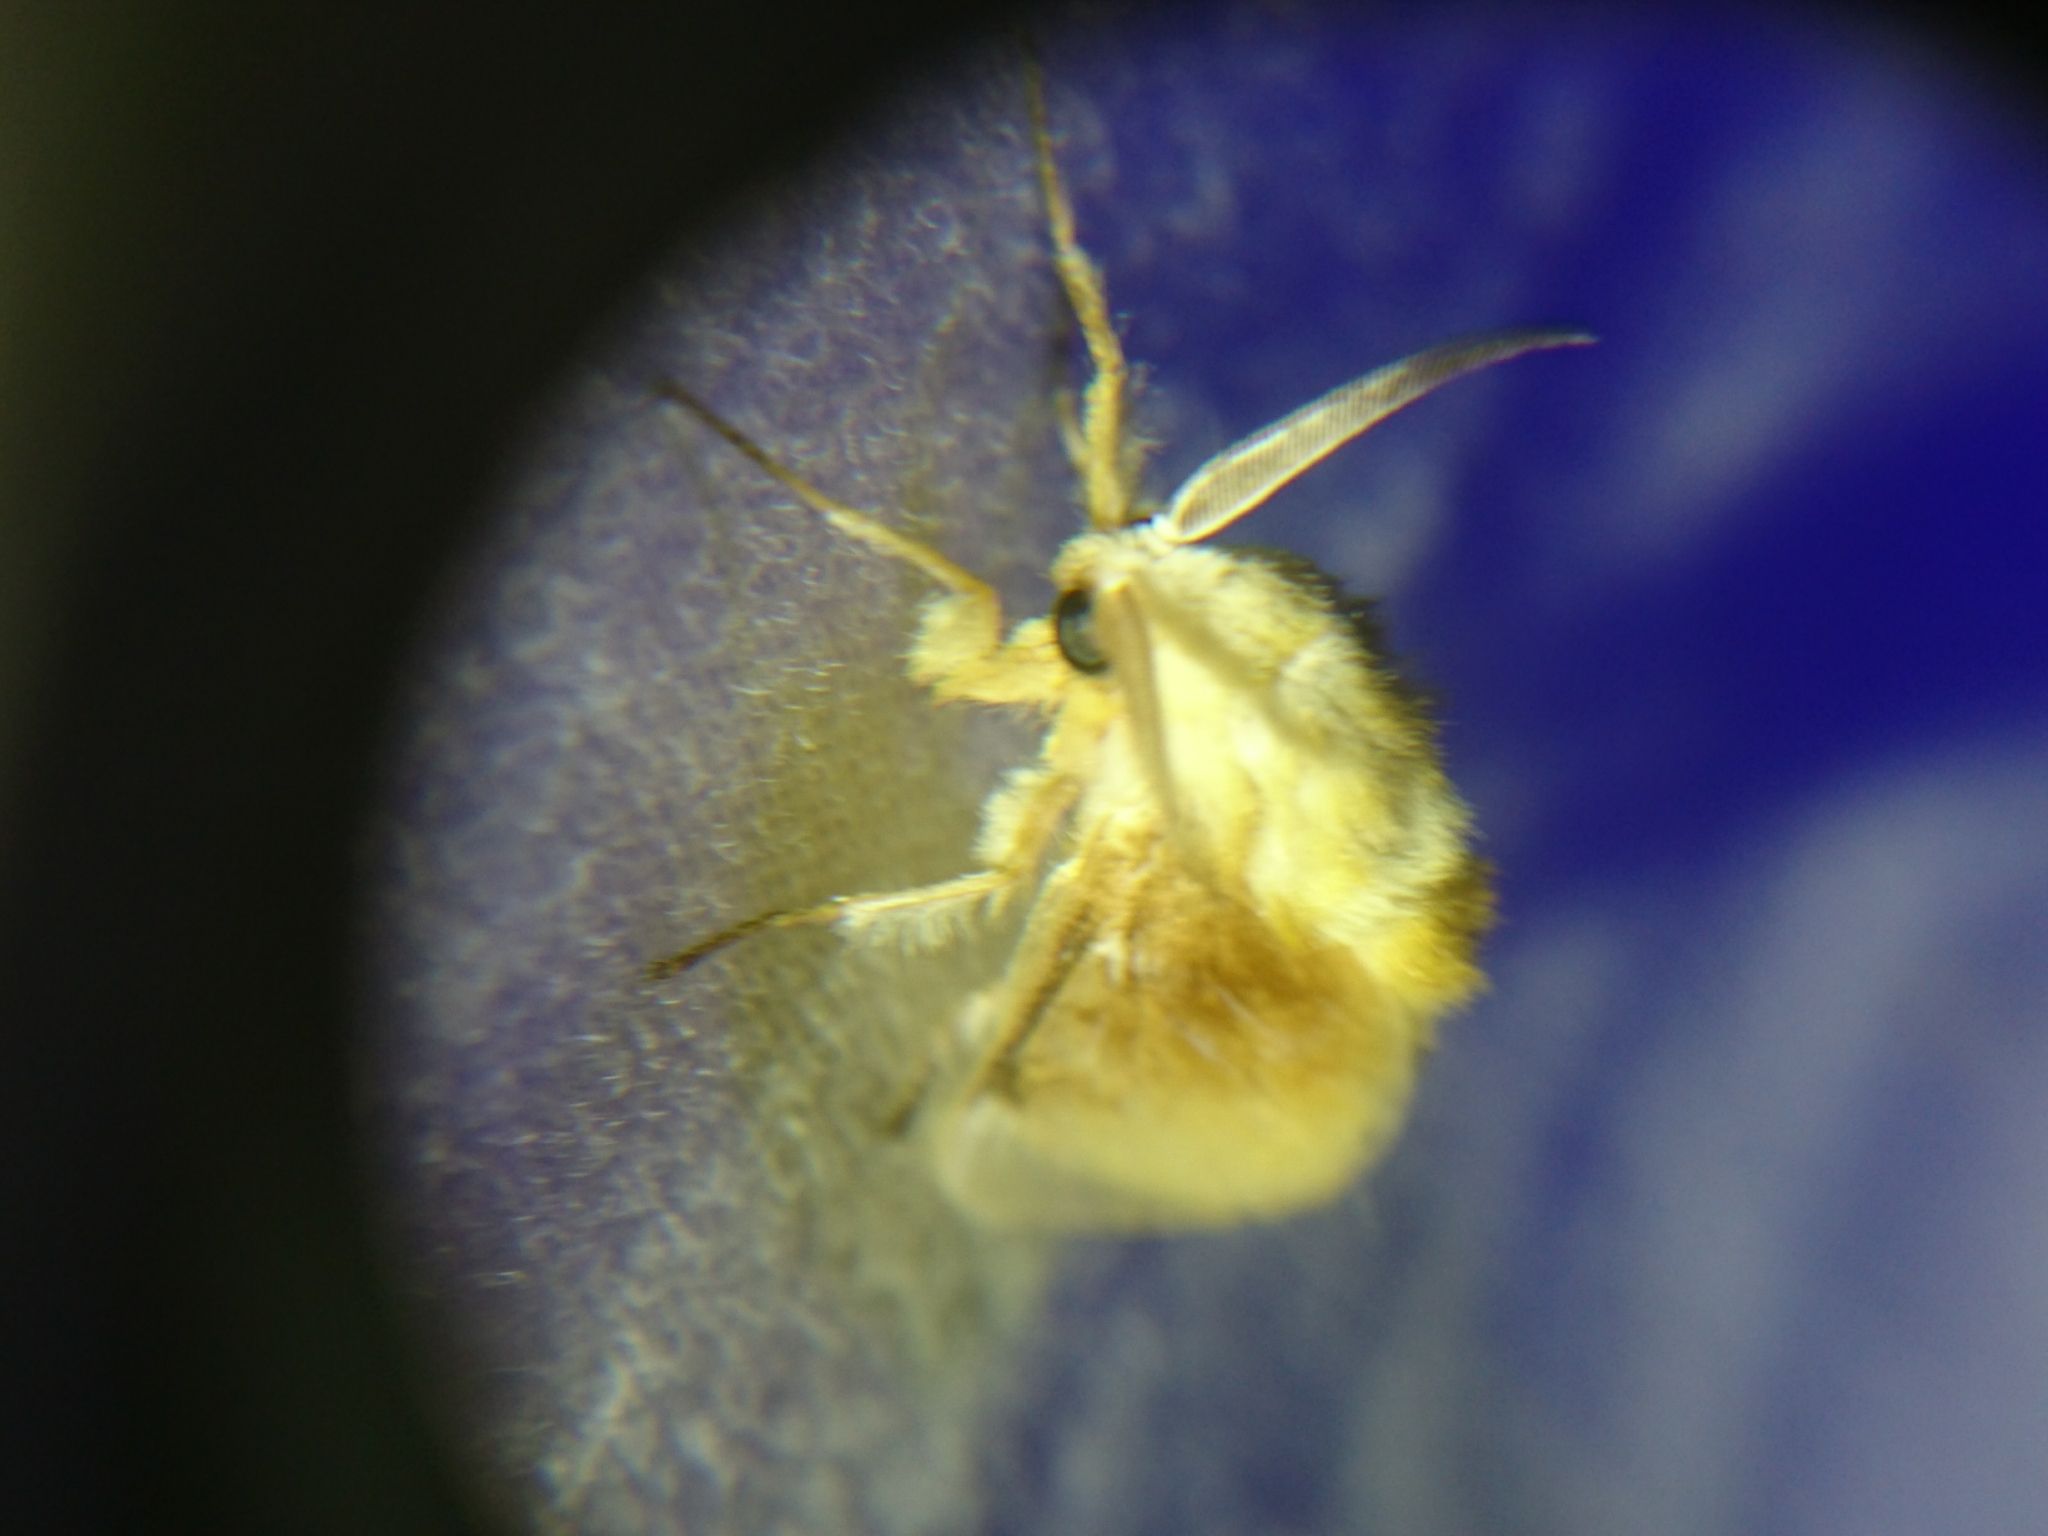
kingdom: Animalia
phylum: Arthropoda
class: Insecta
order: Lepidoptera
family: Megalopygidae
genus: Megalopyge
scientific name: Megalopyge opercularis
